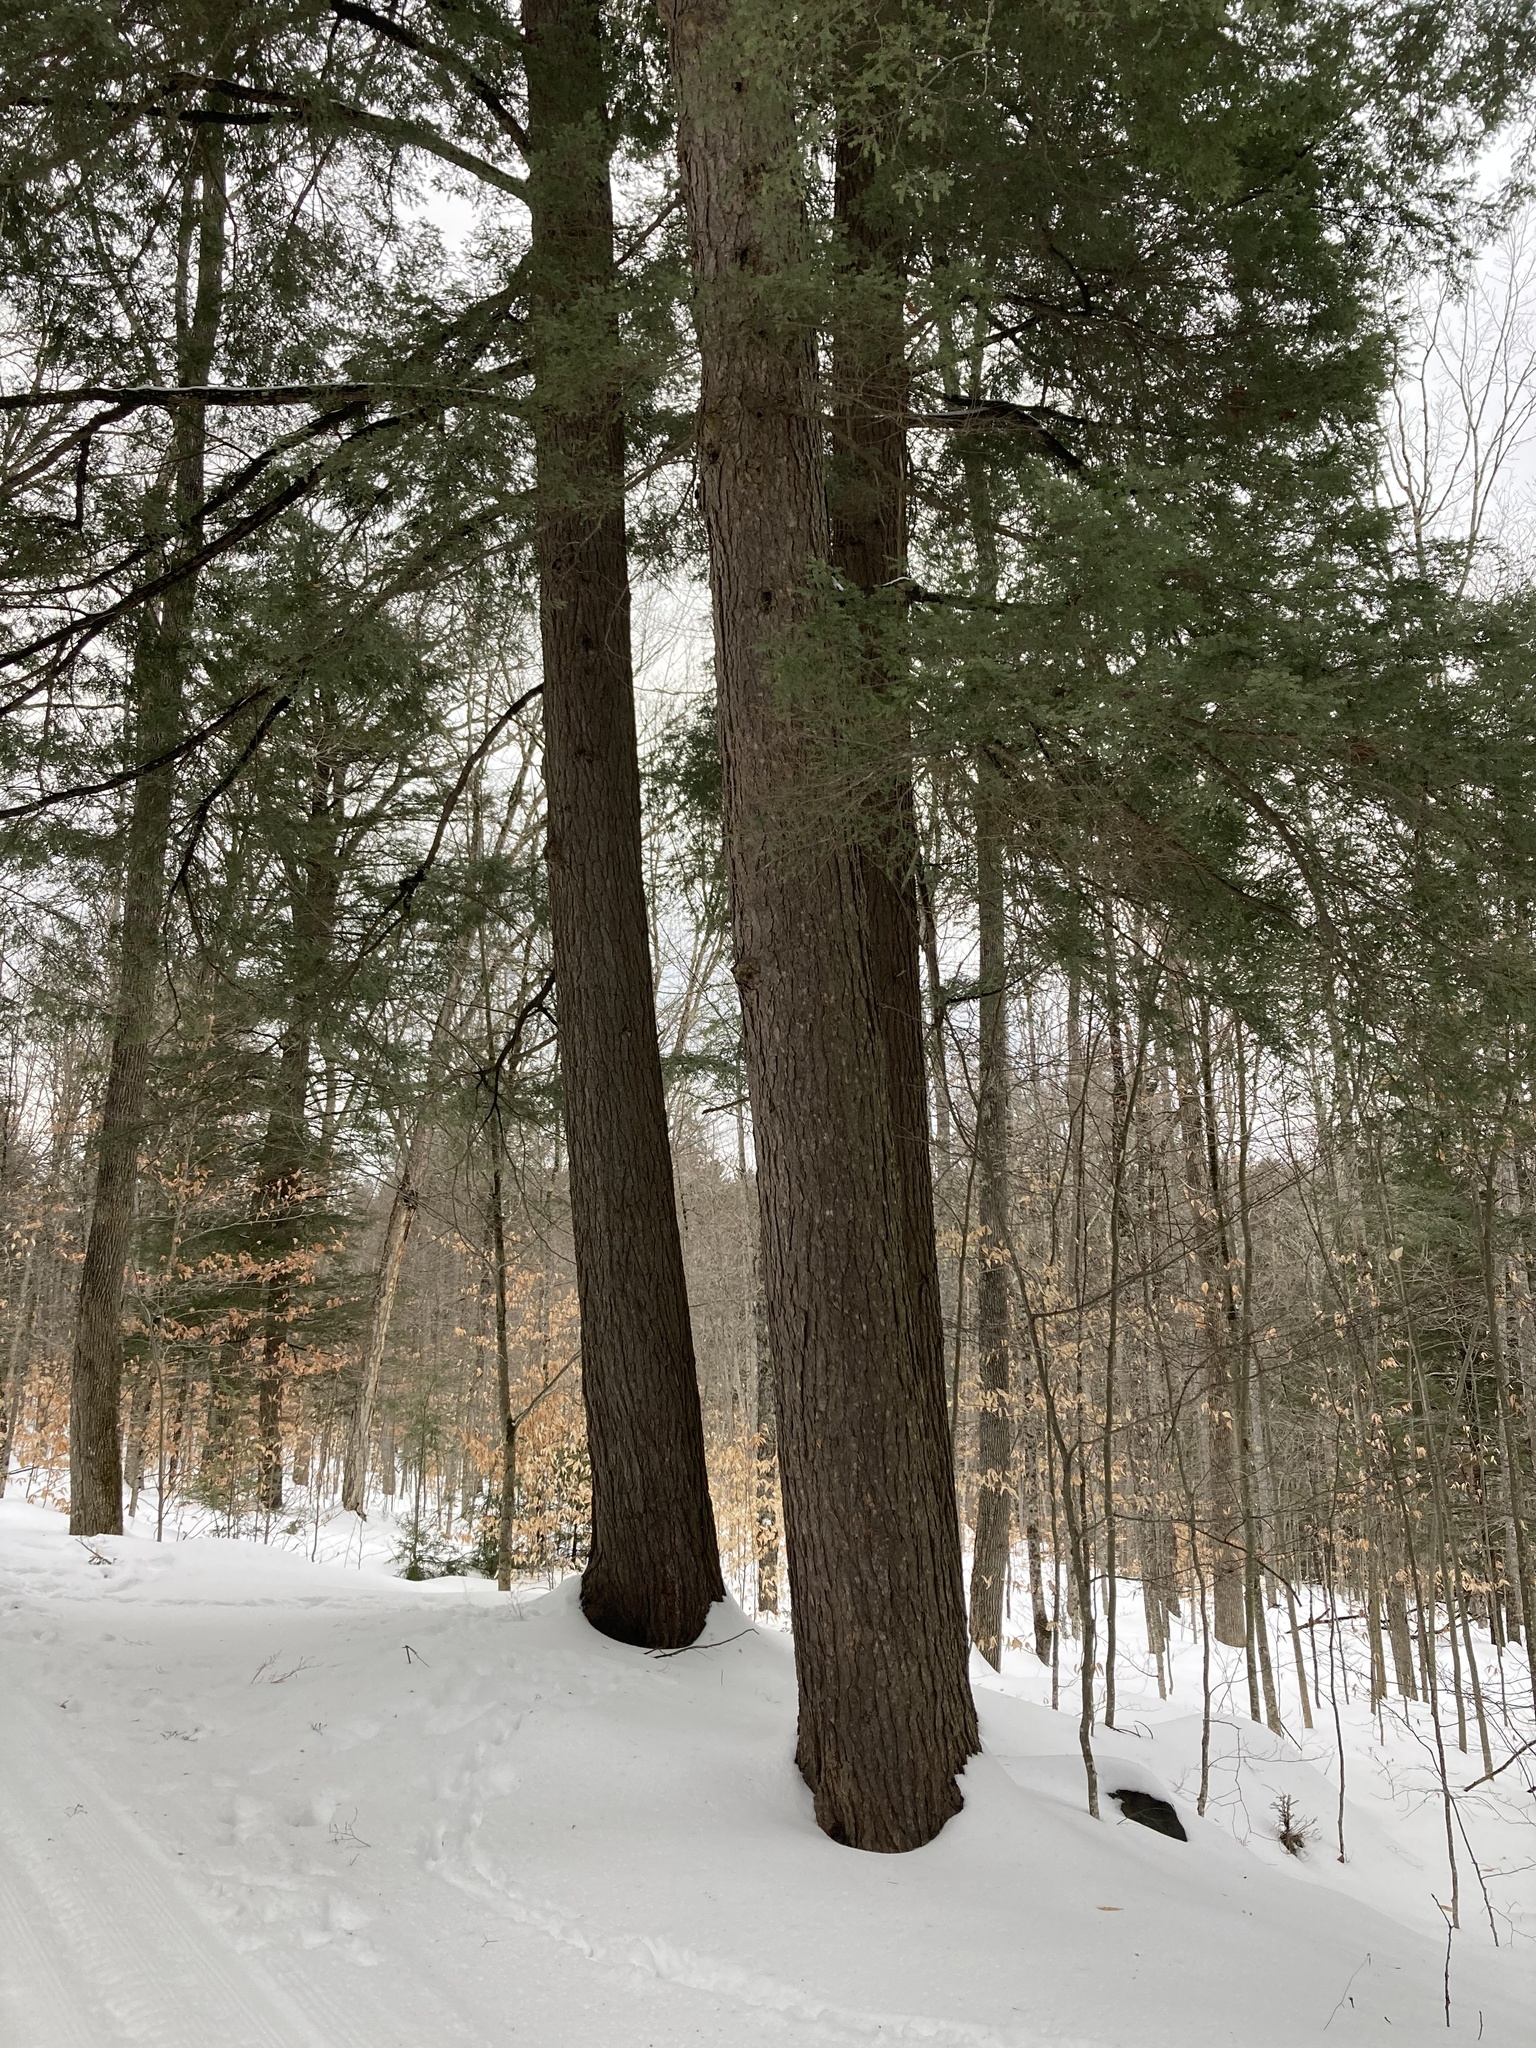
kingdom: Plantae
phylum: Tracheophyta
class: Pinopsida
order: Pinales
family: Pinaceae
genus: Tsuga
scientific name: Tsuga canadensis
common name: Eastern hemlock
